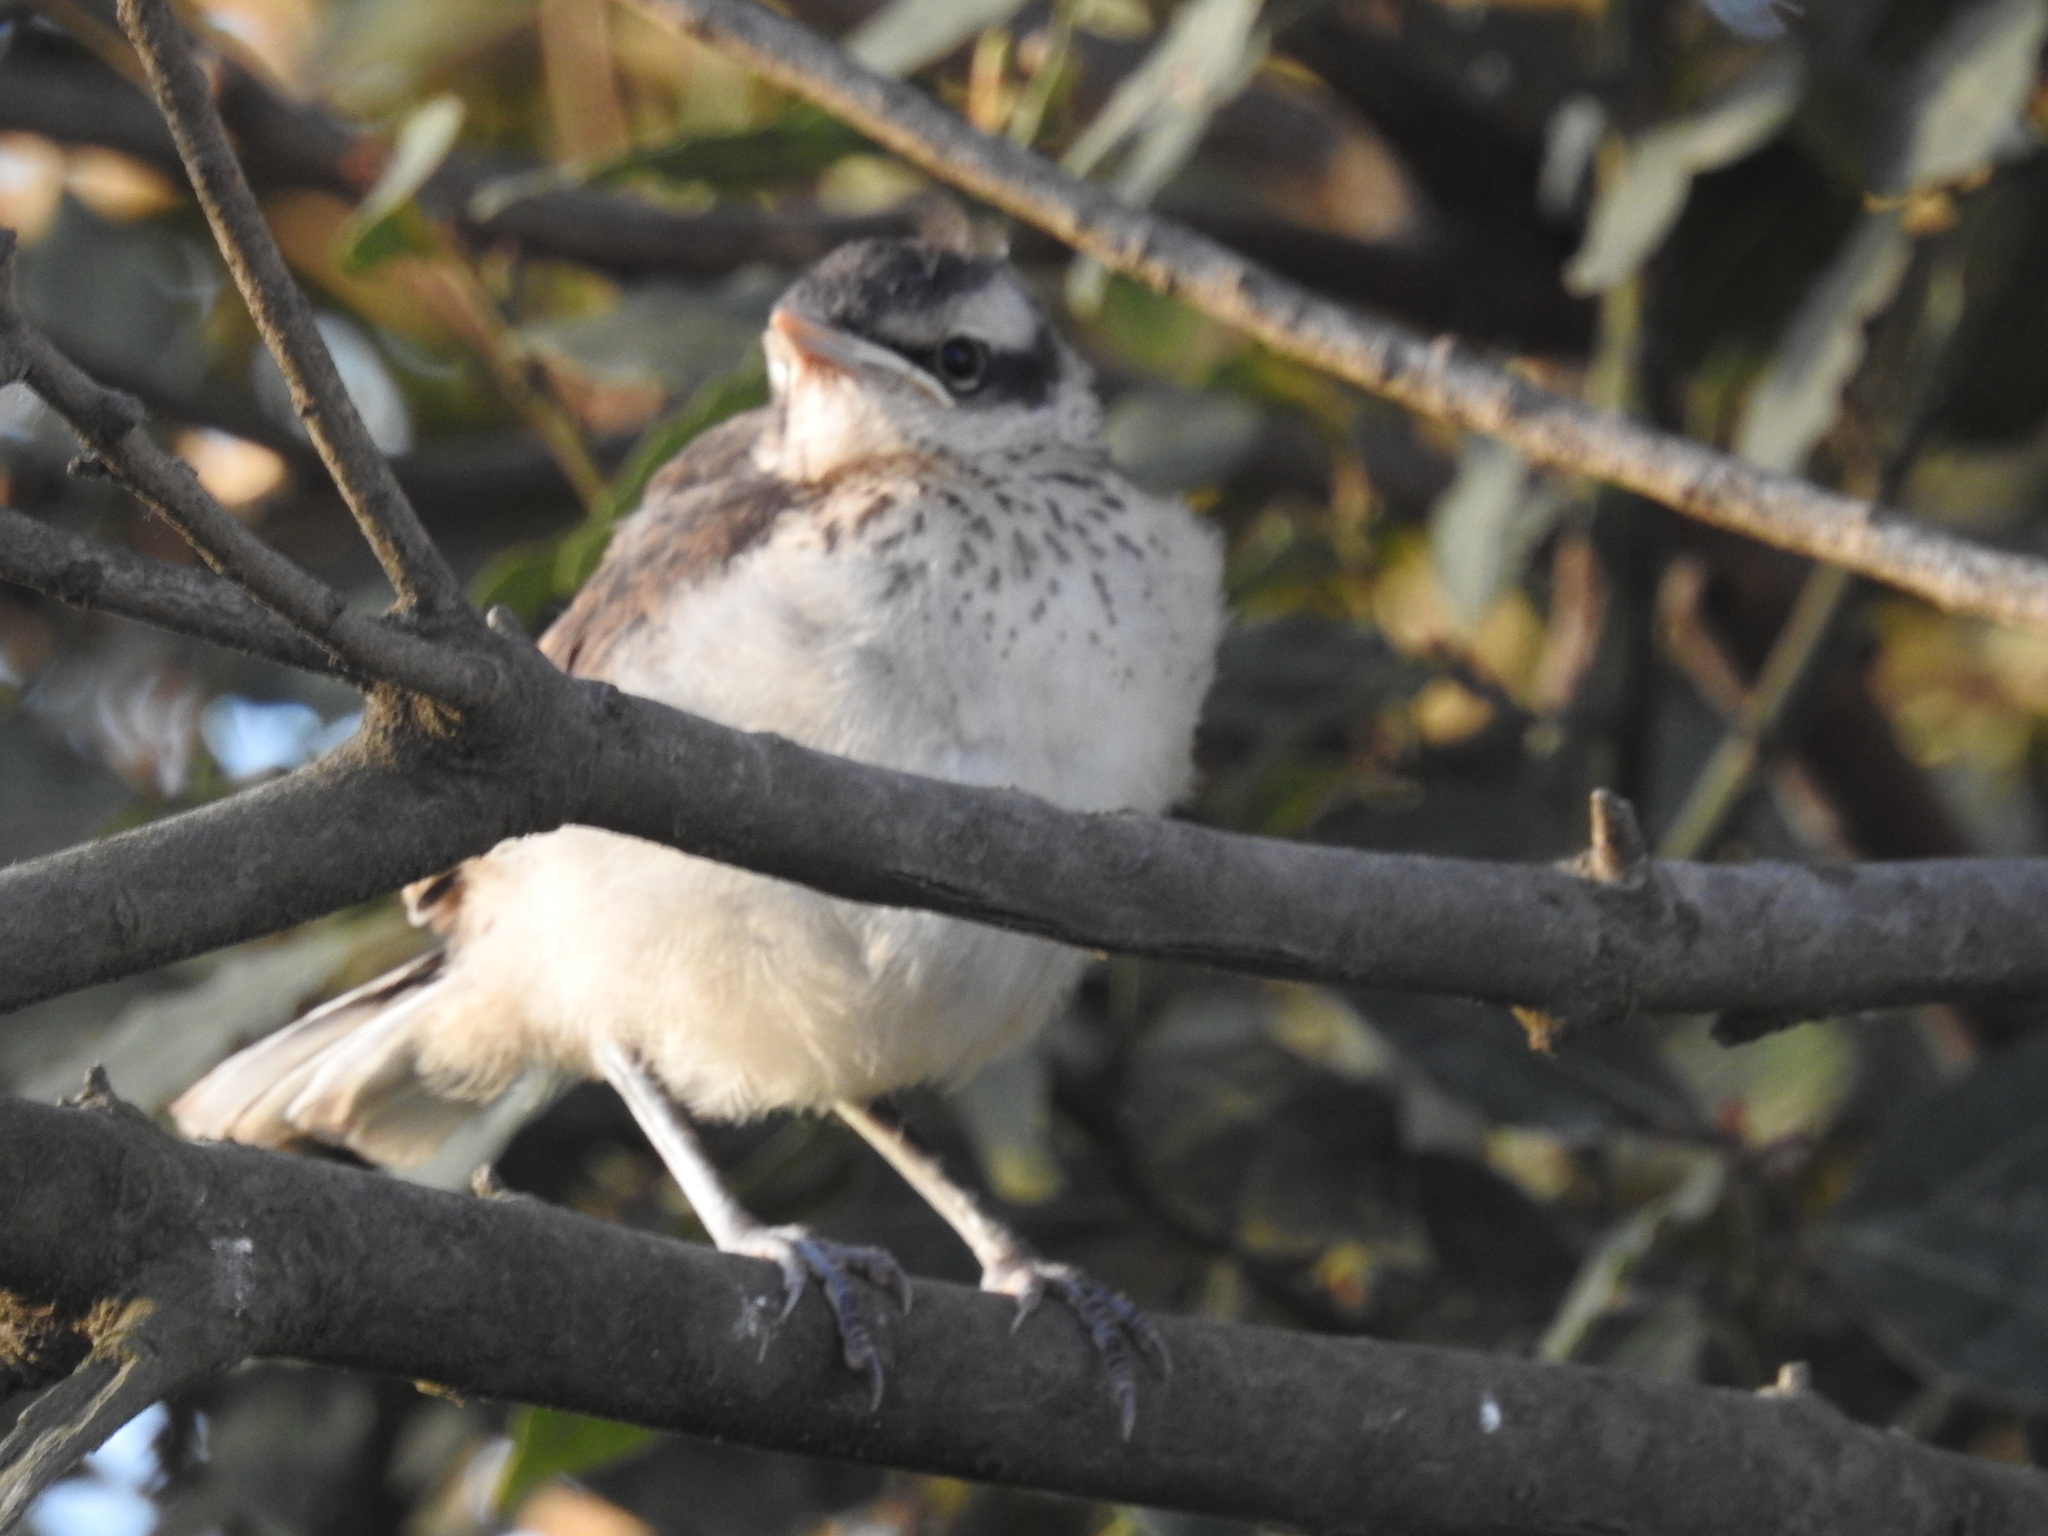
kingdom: Animalia
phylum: Chordata
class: Aves
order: Passeriformes
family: Mimidae
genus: Mimus
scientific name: Mimus saturninus
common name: Chalk-browed mockingbird
